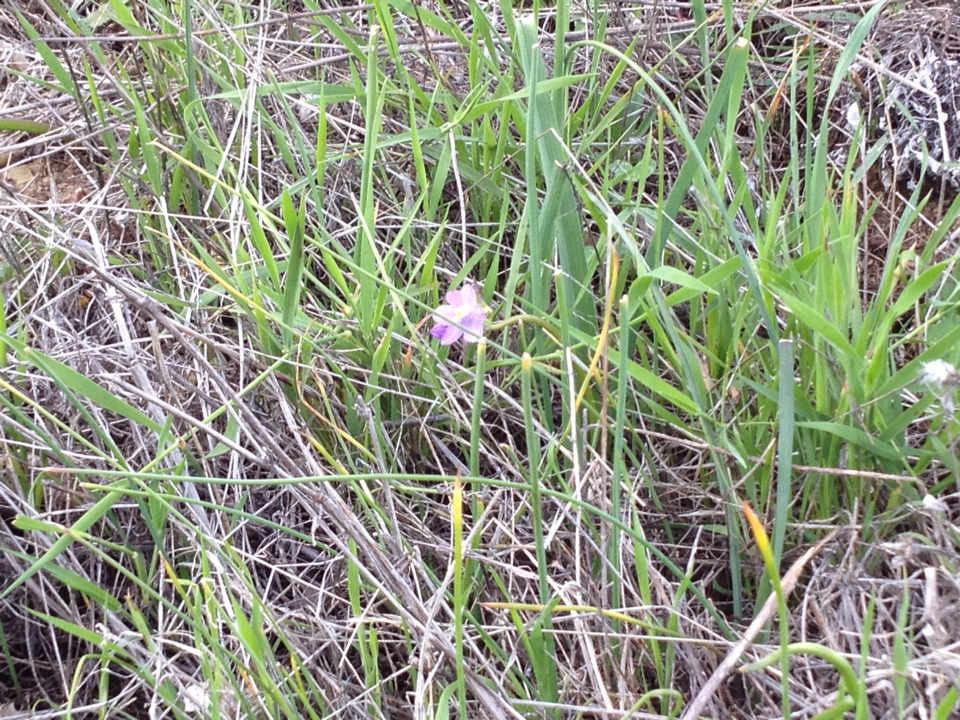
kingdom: Plantae
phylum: Tracheophyta
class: Liliopsida
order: Asparagales
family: Asparagaceae
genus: Dipterostemon
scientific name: Dipterostemon capitatus
